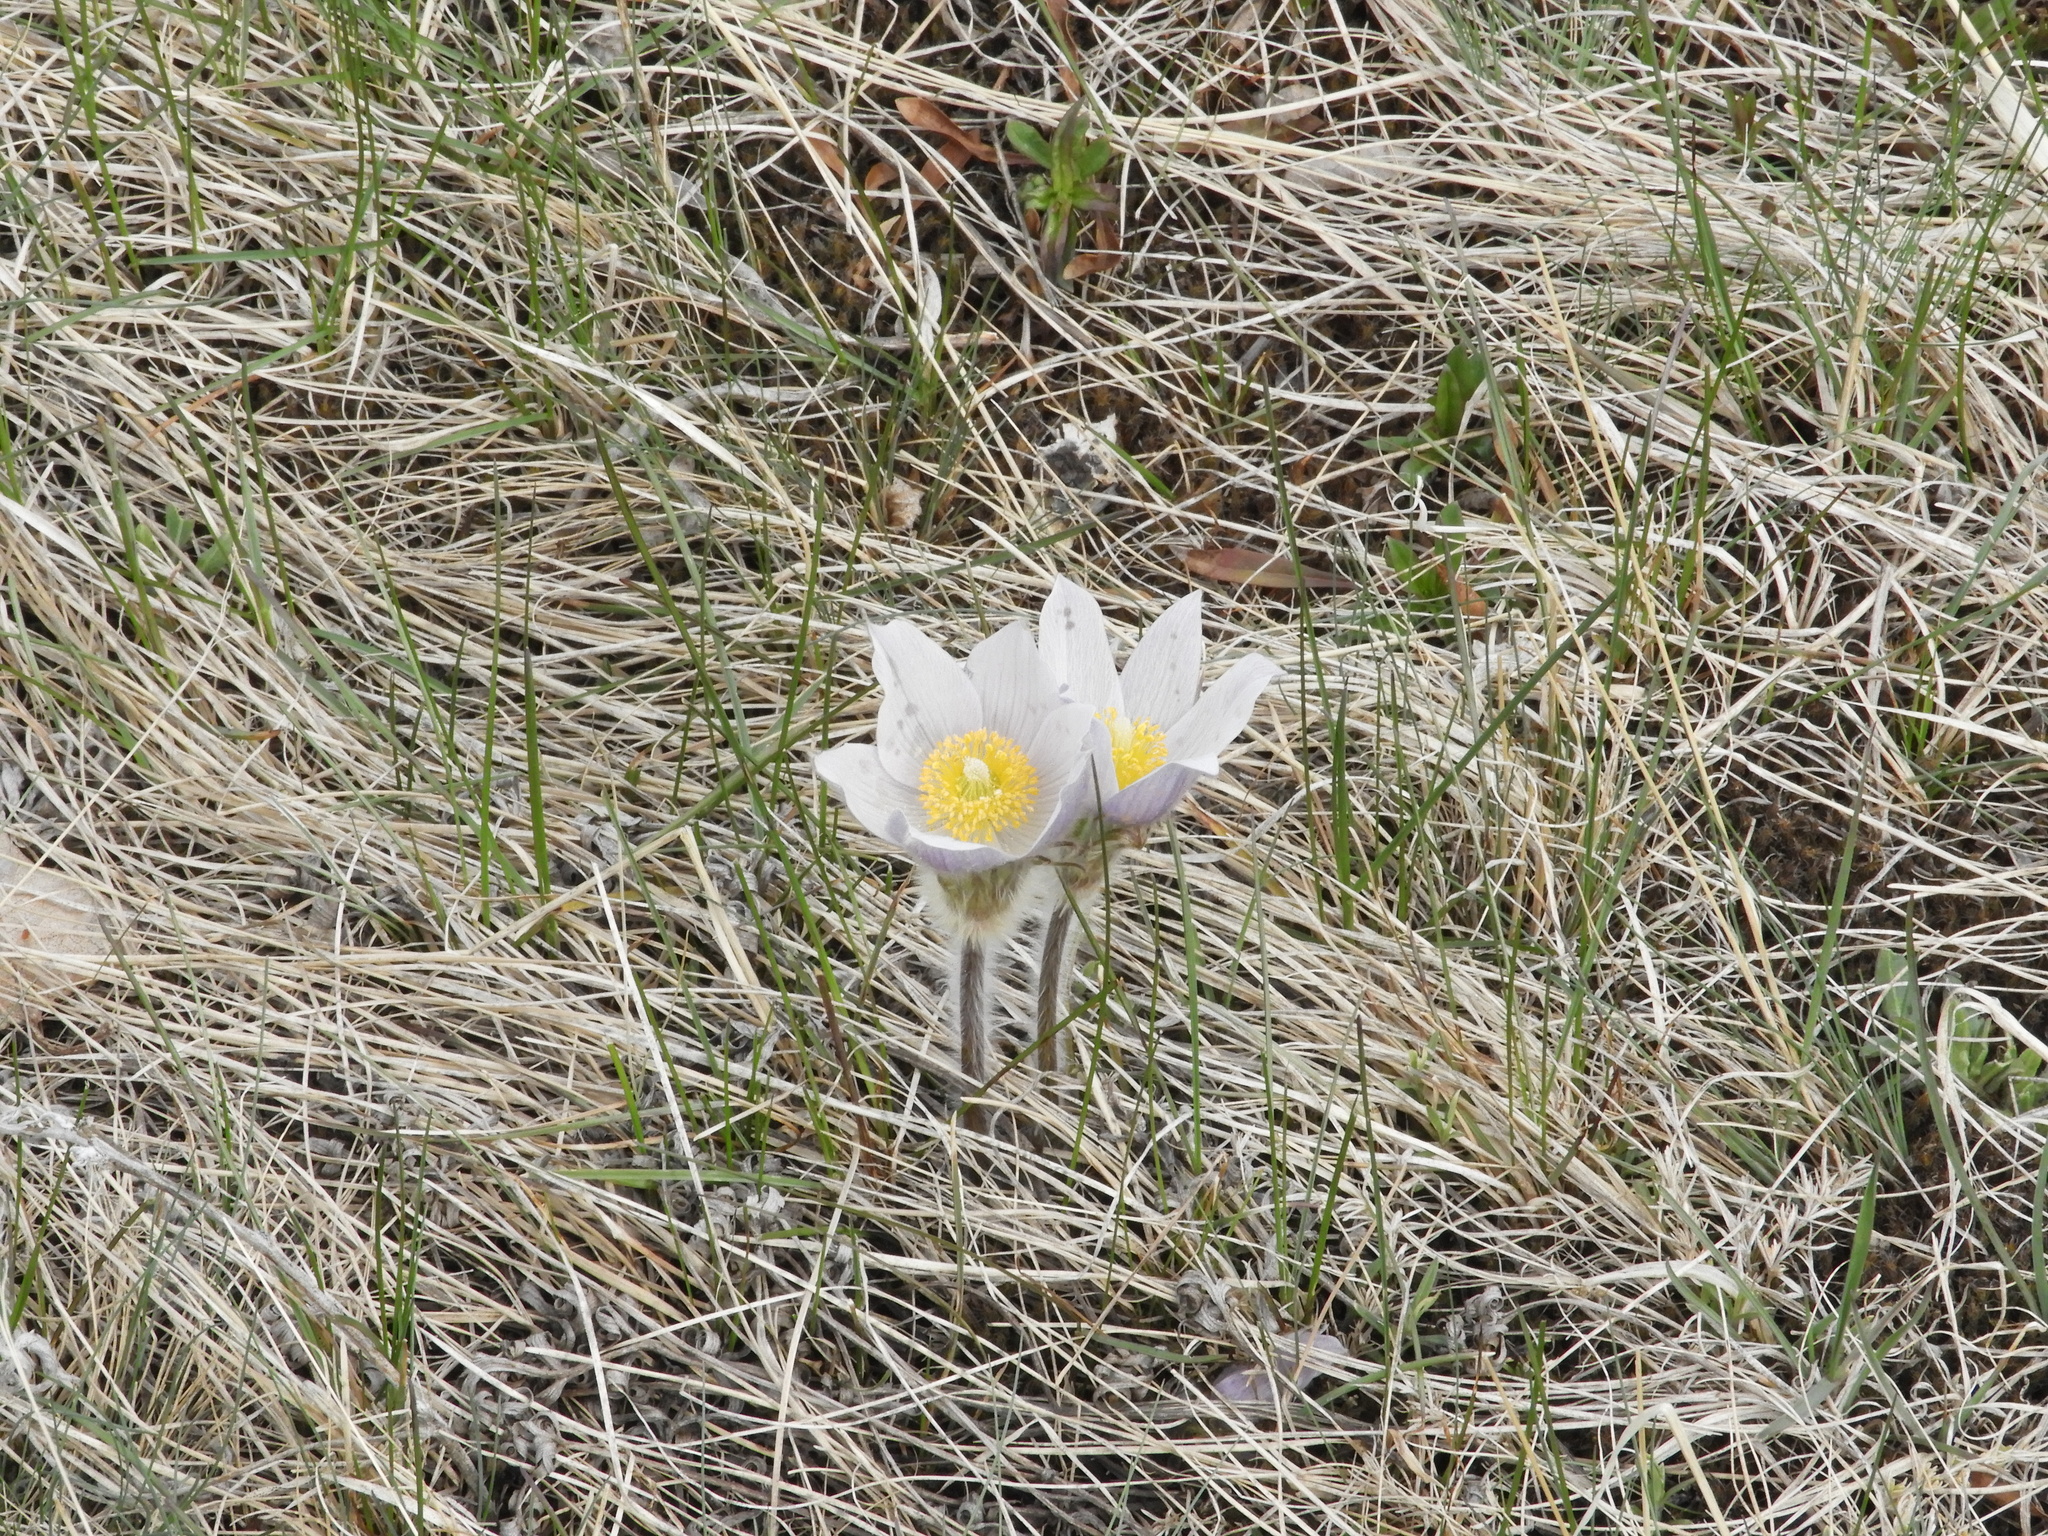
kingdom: Plantae
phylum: Tracheophyta
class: Magnoliopsida
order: Ranunculales
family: Ranunculaceae
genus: Pulsatilla
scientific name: Pulsatilla nuttalliana
